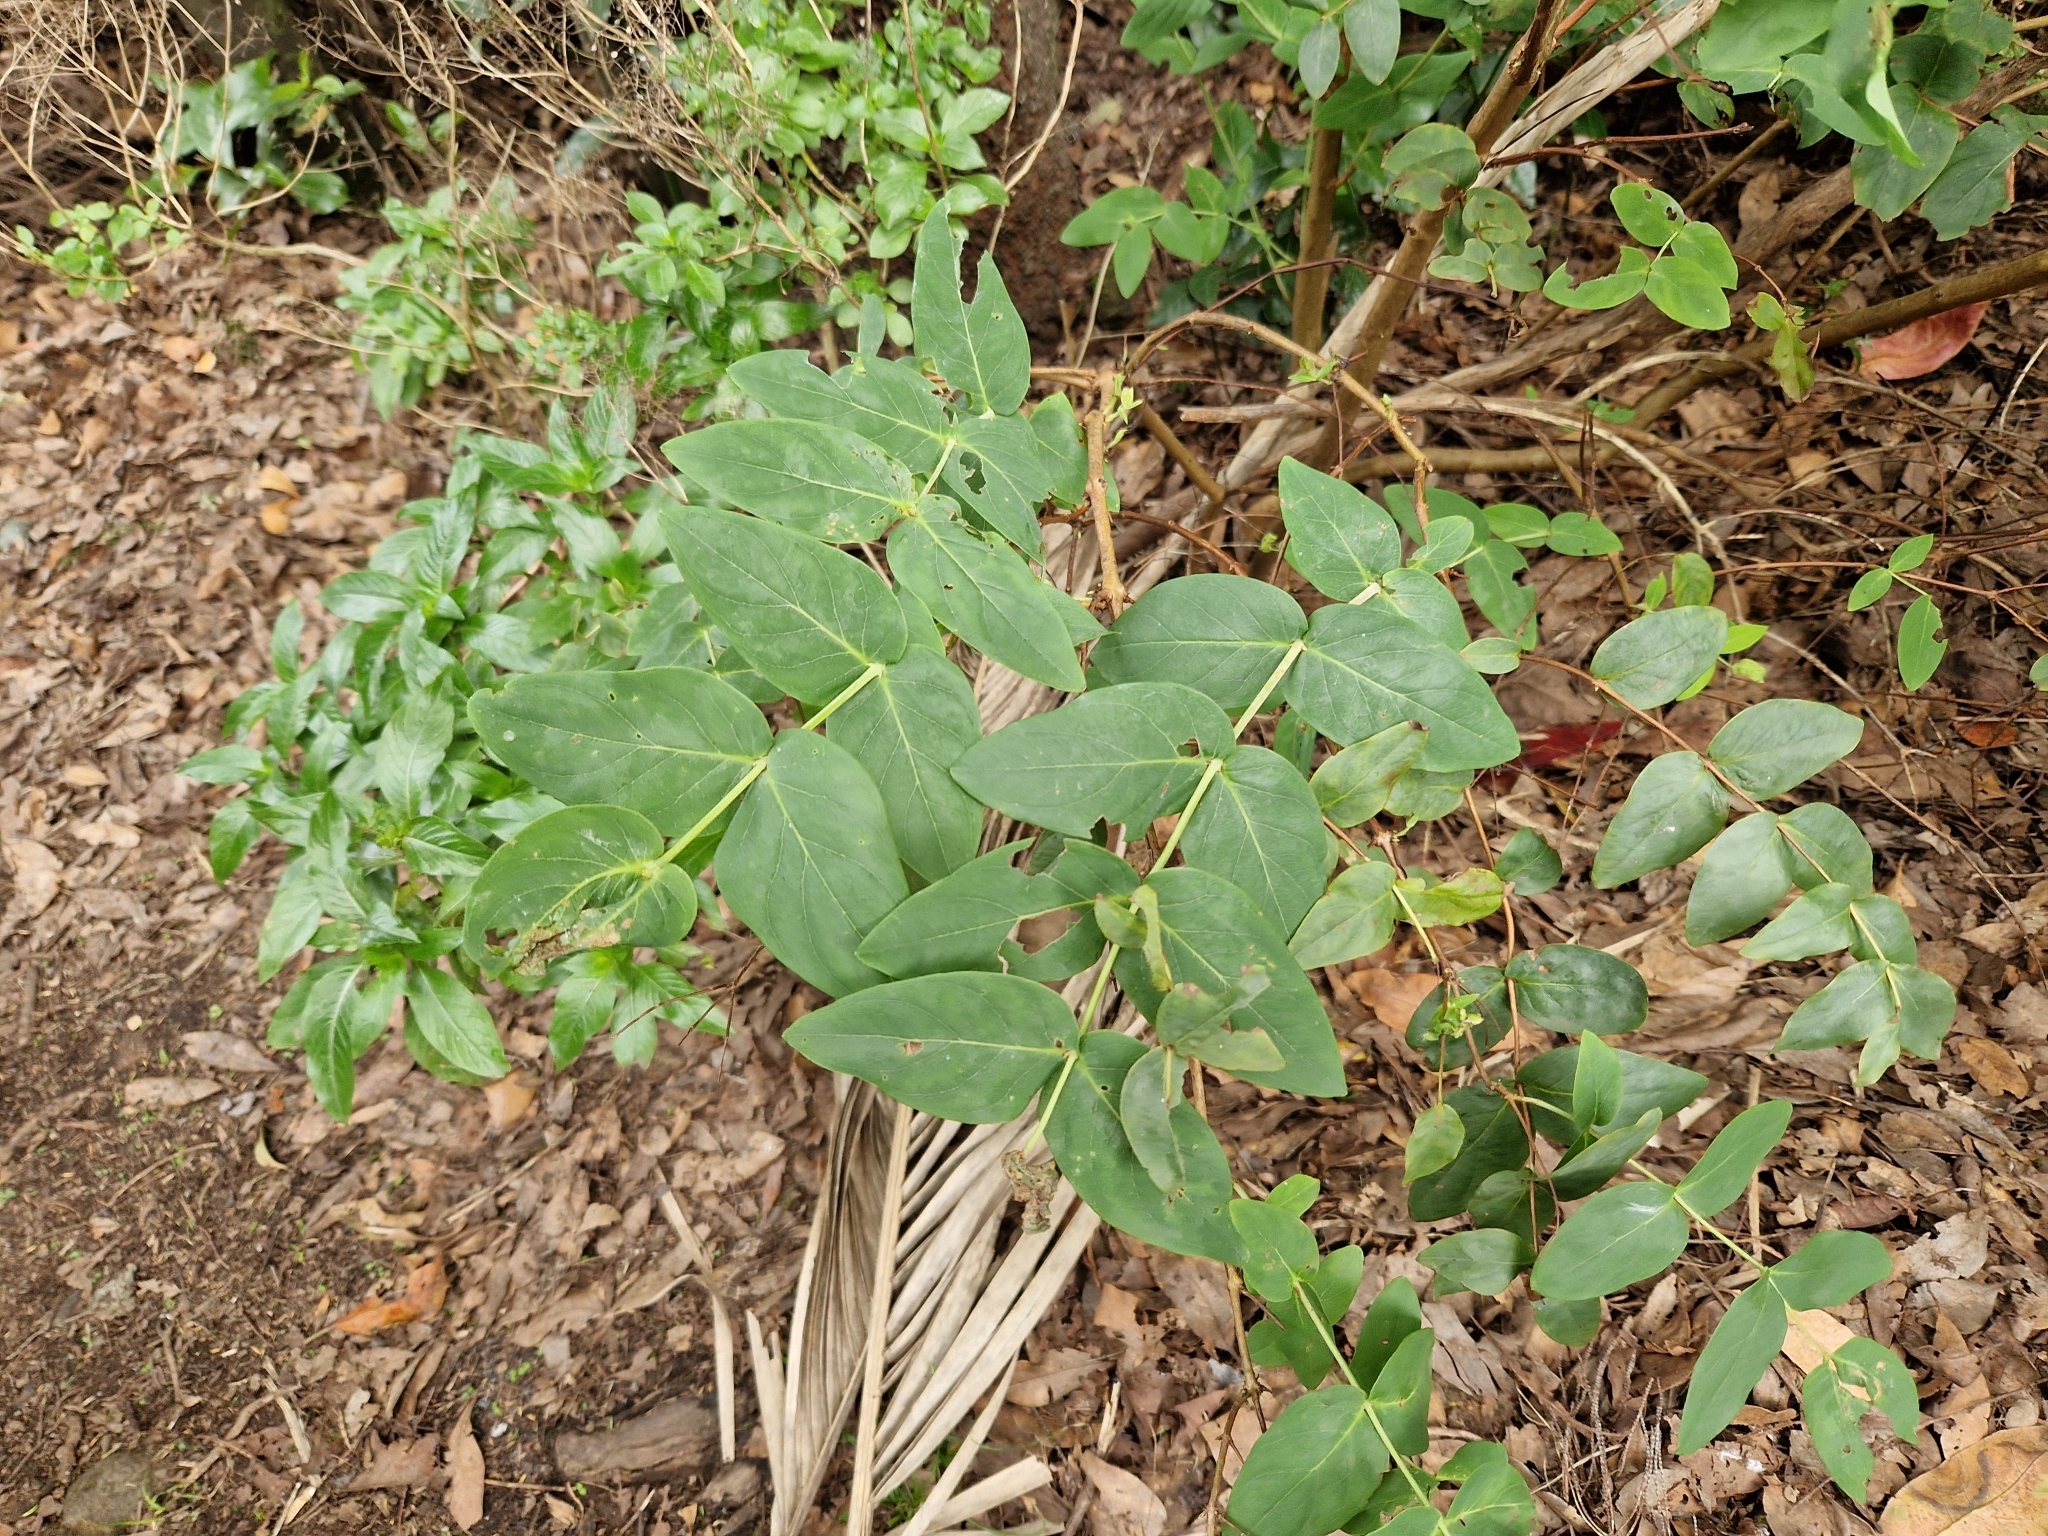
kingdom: Plantae
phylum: Tracheophyta
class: Magnoliopsida
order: Malpighiales
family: Hypericaceae
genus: Hypericum
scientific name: Hypericum grandifolium
